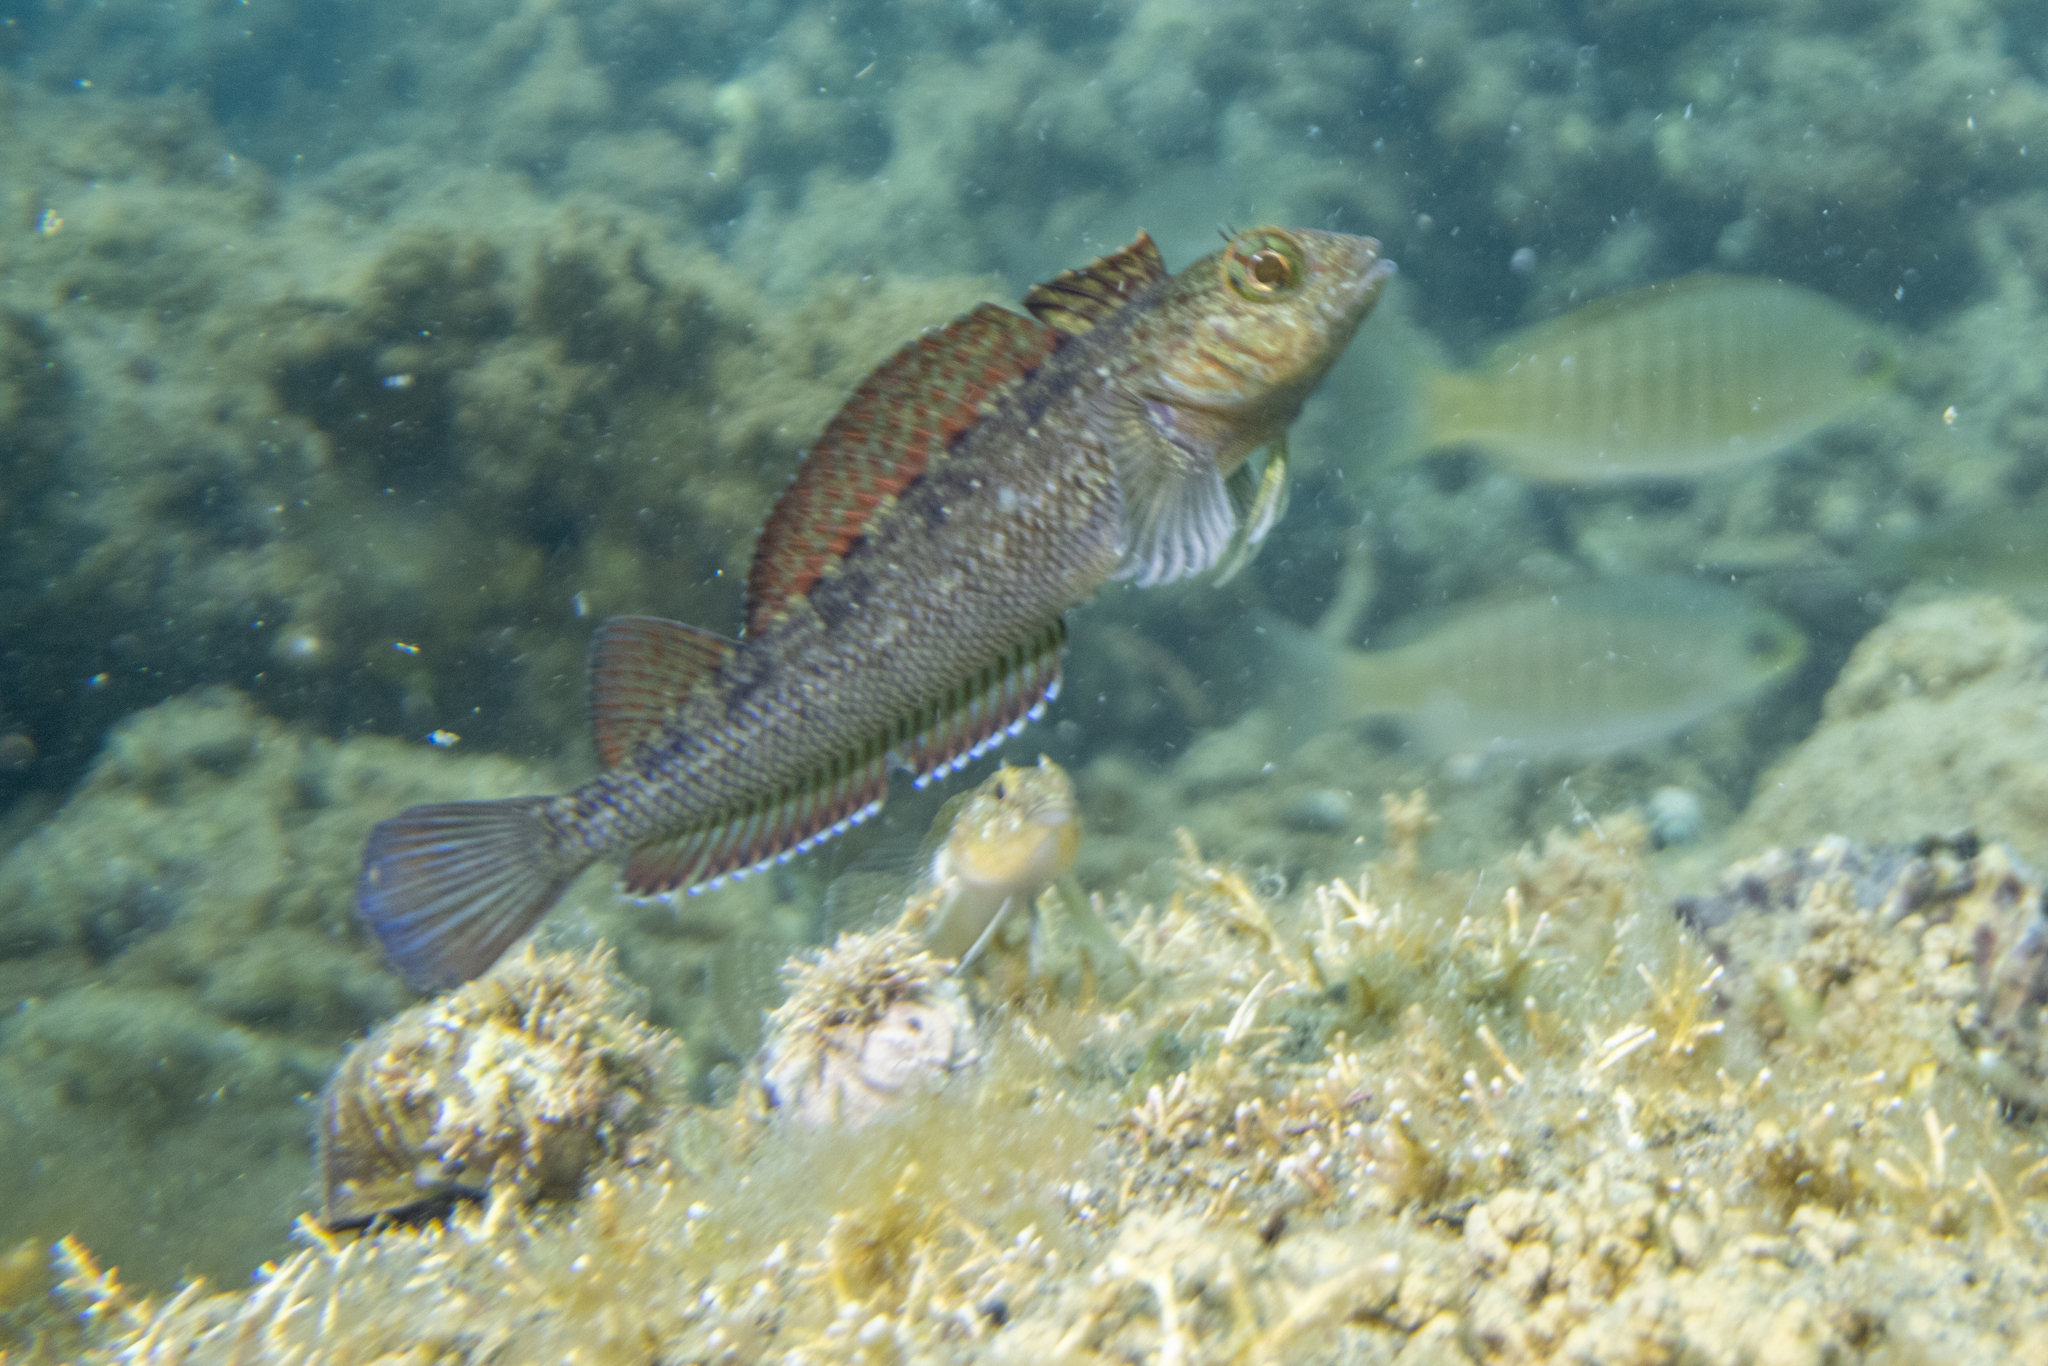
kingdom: Animalia
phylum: Chordata
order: Perciformes
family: Tripterygiidae
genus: Forsterygion
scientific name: Forsterygion lapillum
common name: Common triplefin
